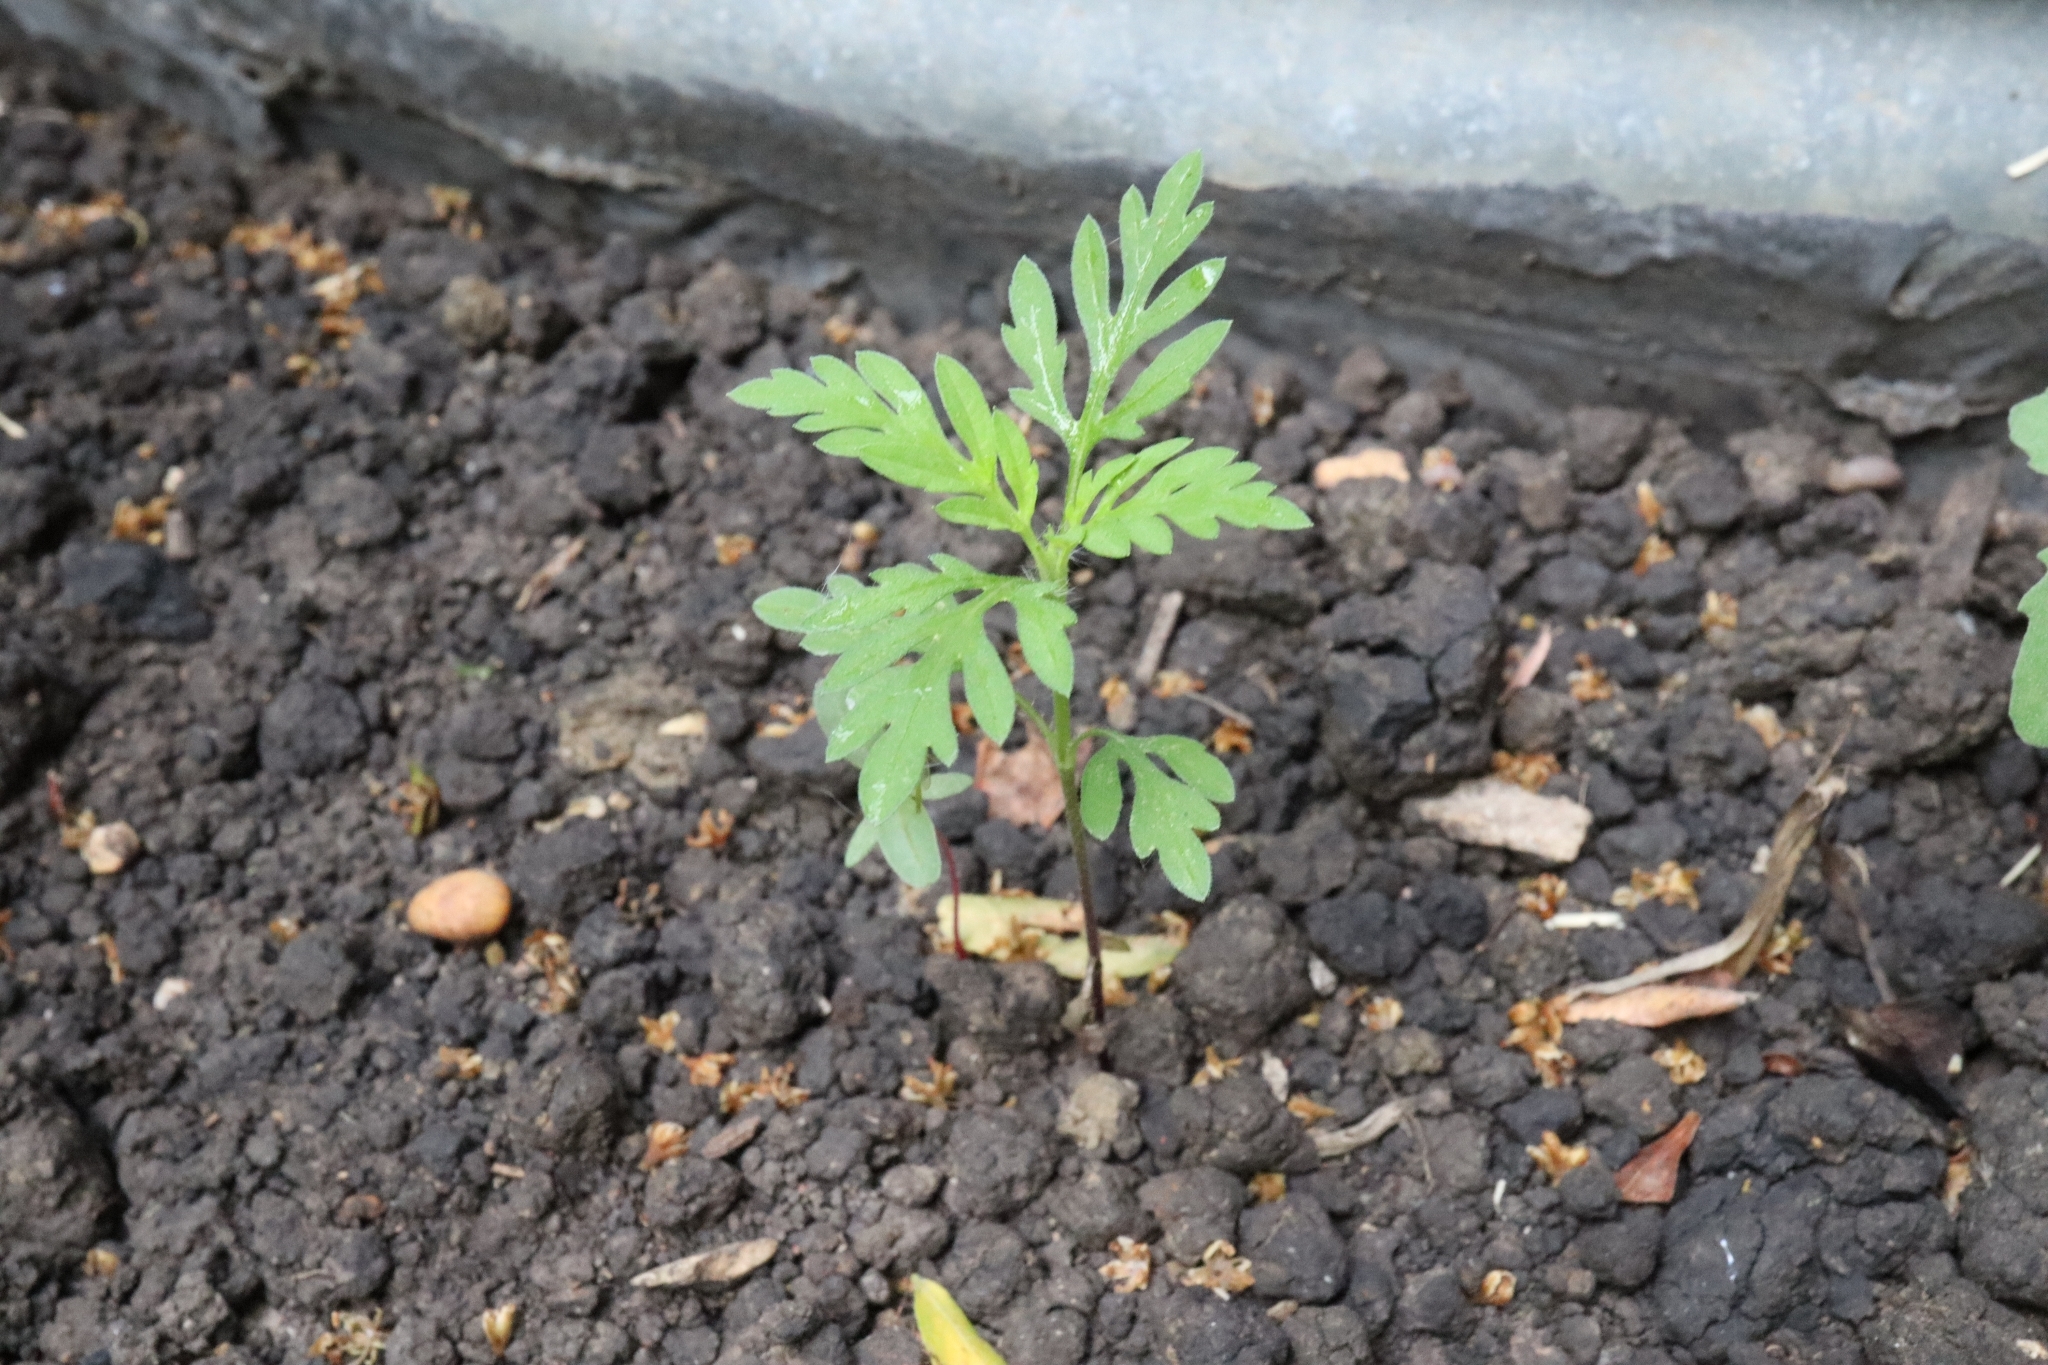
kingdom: Plantae
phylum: Tracheophyta
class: Magnoliopsida
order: Asterales
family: Asteraceae
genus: Ambrosia
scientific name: Ambrosia artemisiifolia
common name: Annual ragweed
